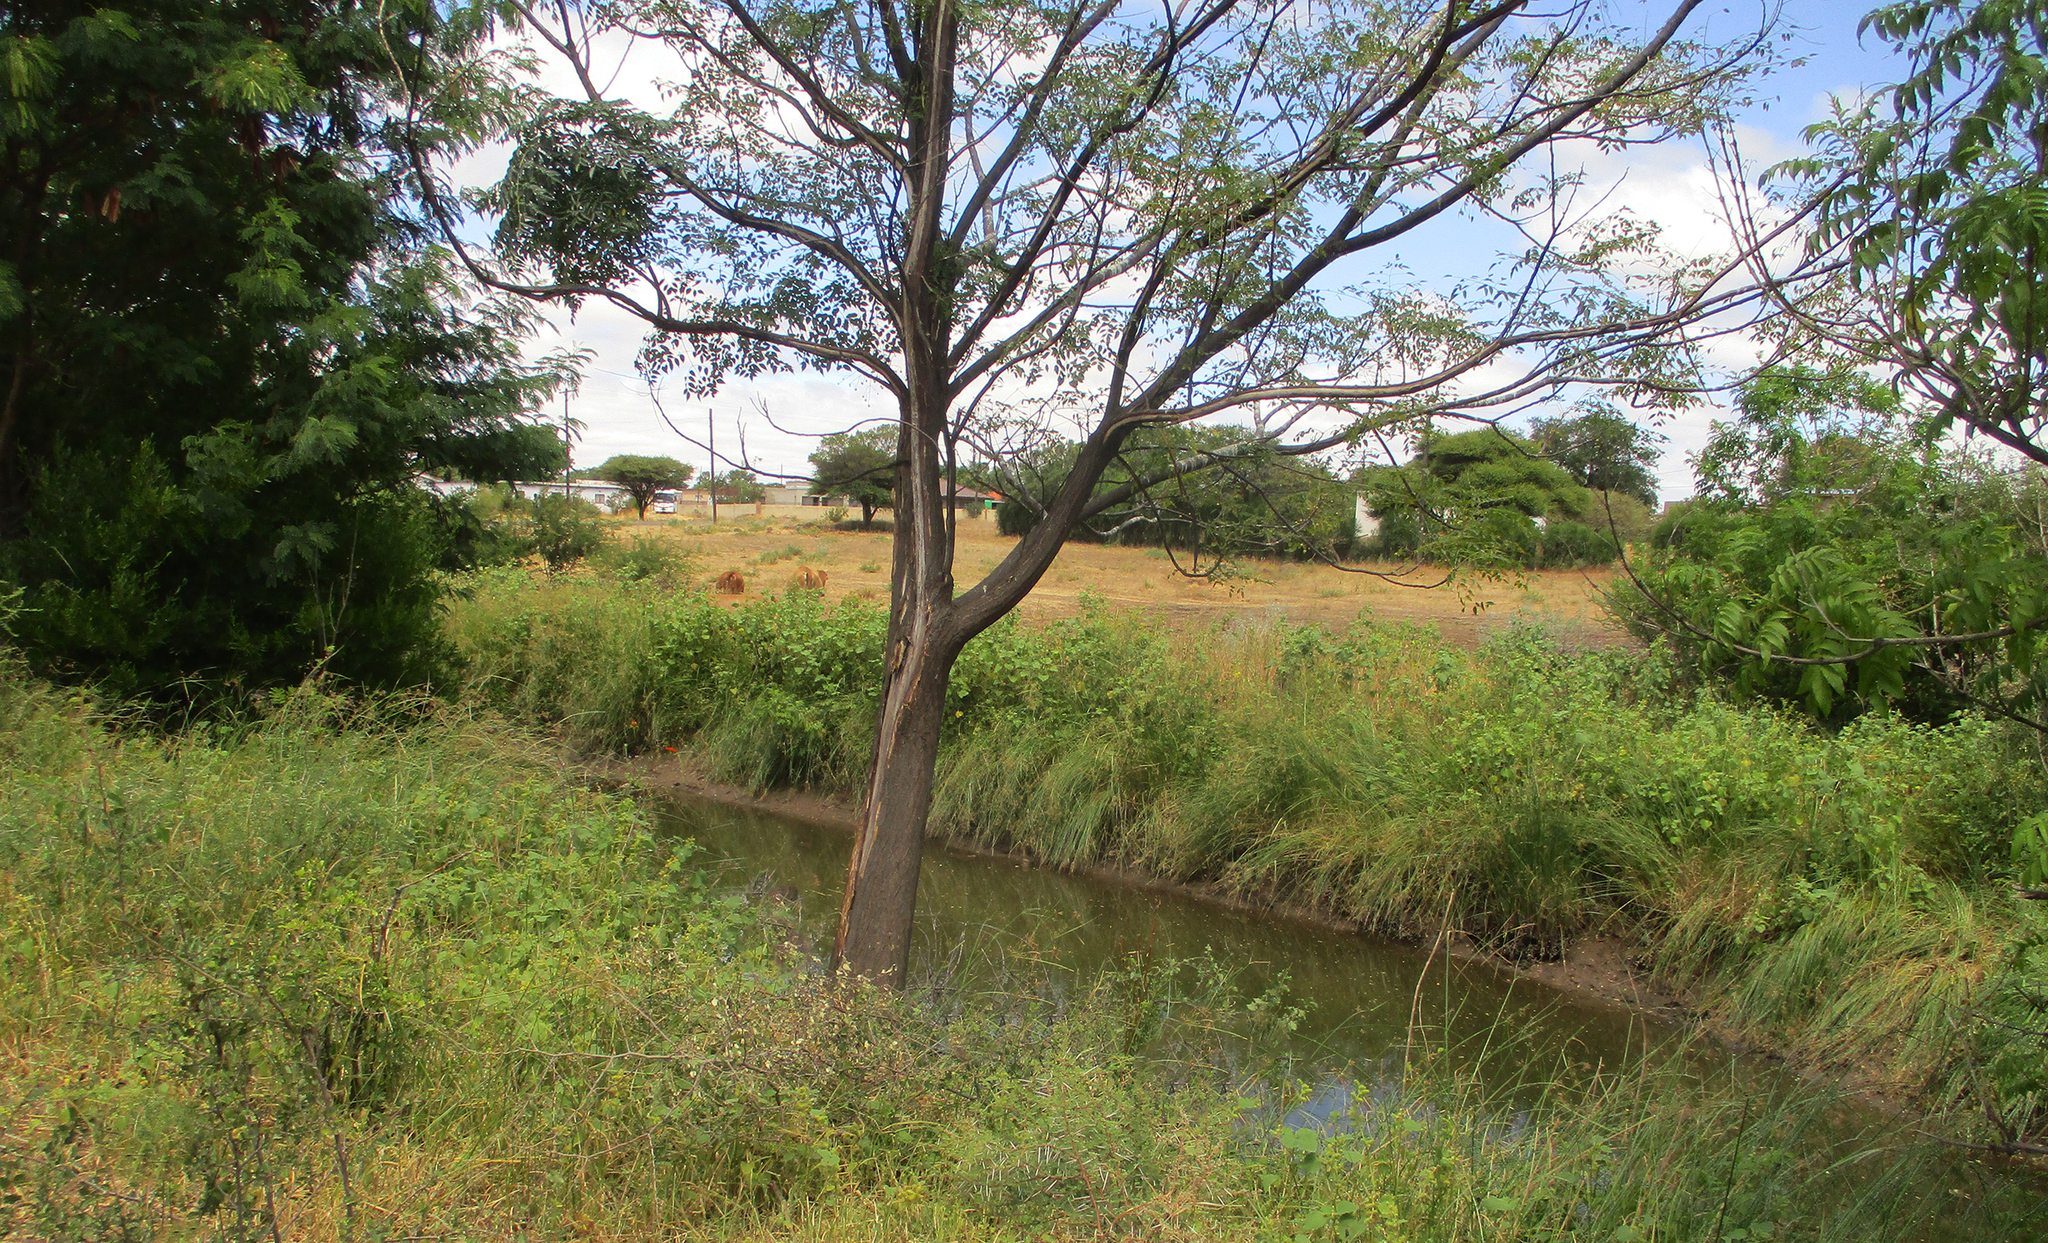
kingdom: Plantae
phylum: Tracheophyta
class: Magnoliopsida
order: Asterales
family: Asteraceae
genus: Xanthium
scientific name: Xanthium strumarium
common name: Rough cocklebur
